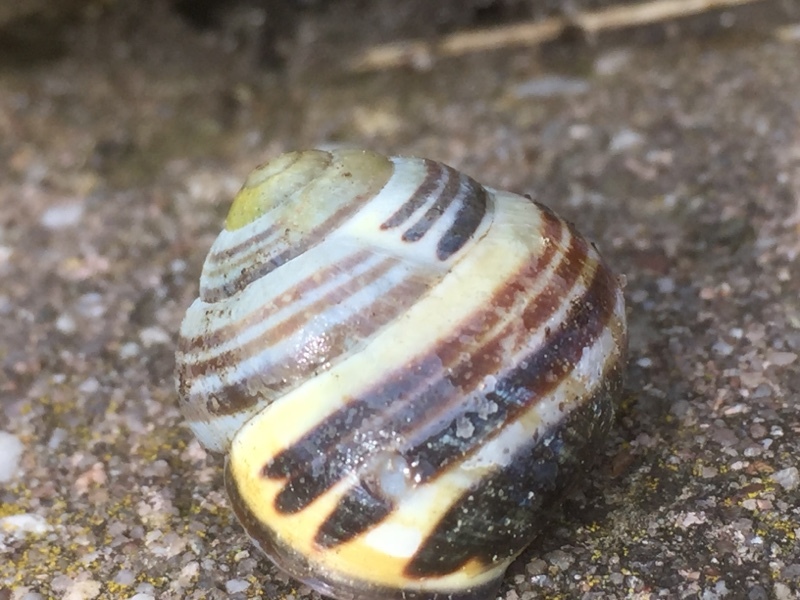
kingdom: Animalia
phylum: Mollusca
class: Gastropoda
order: Stylommatophora
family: Helicidae
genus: Cepaea
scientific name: Cepaea nemoralis
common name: Grovesnail
